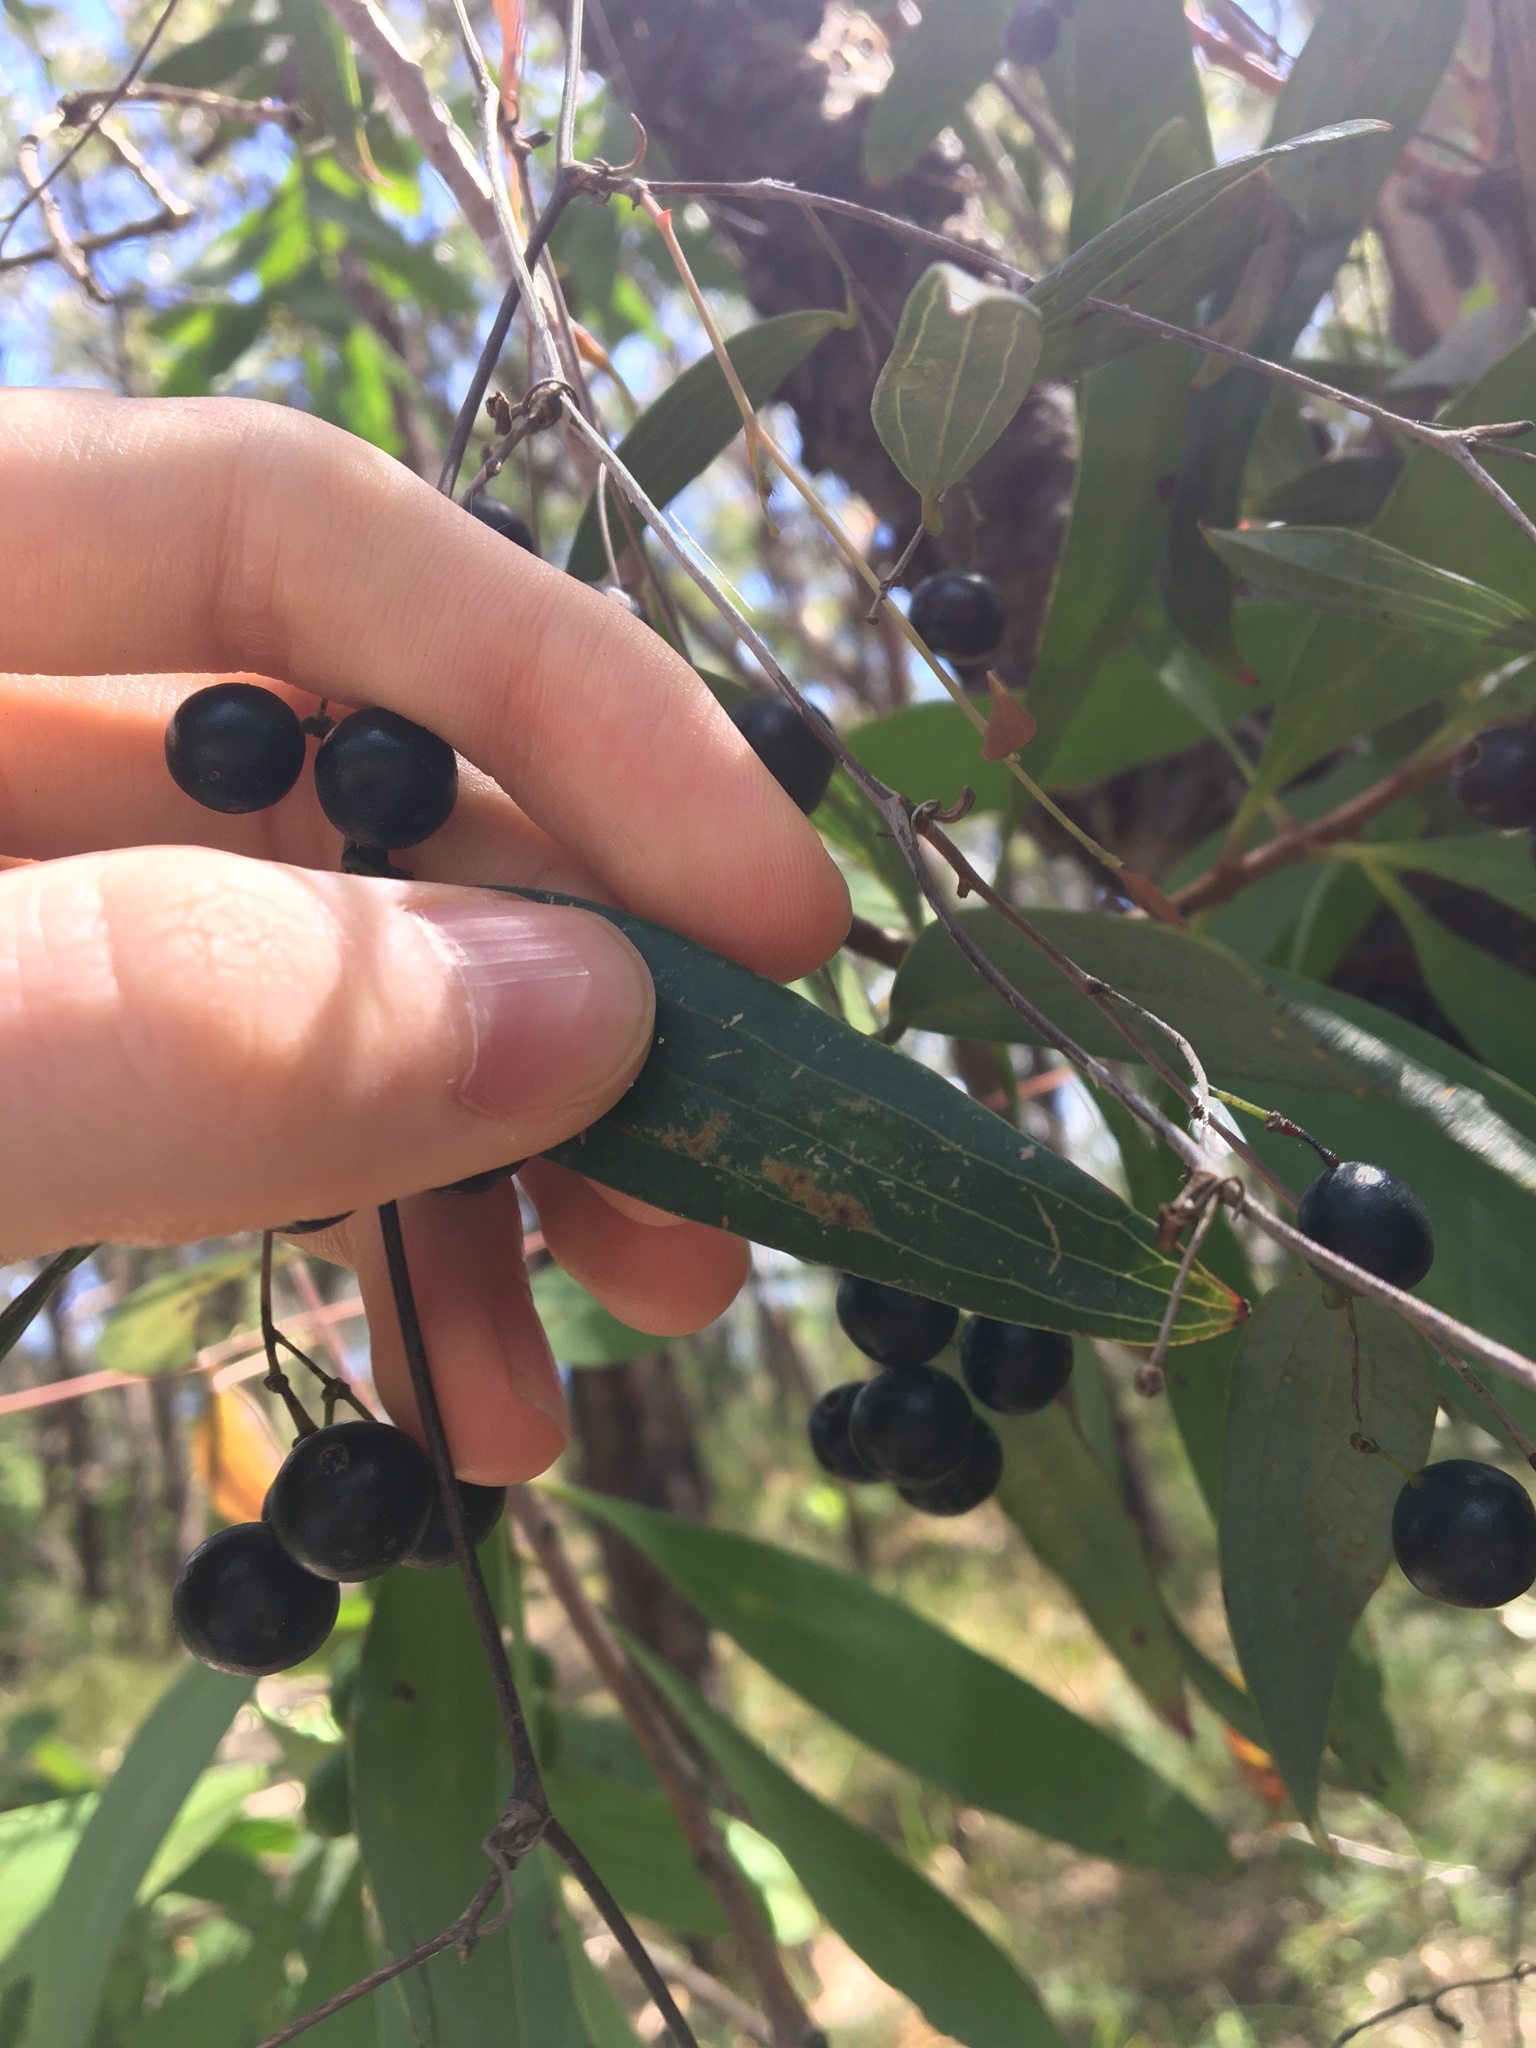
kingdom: Plantae
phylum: Tracheophyta
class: Liliopsida
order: Liliales
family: Smilacaceae
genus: Smilax
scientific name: Smilax glyciphylla
